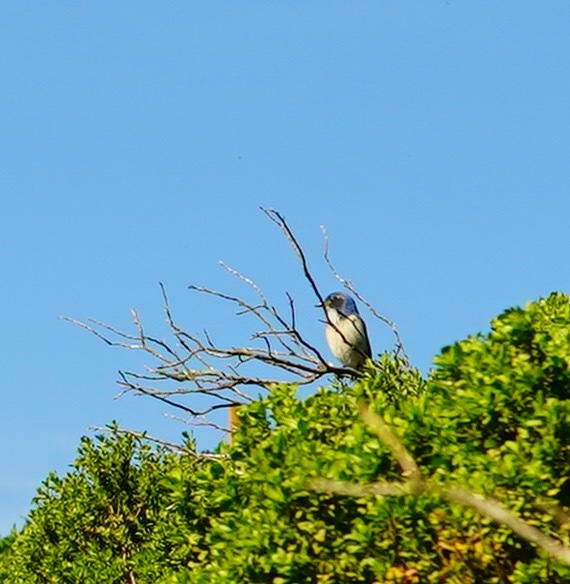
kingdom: Animalia
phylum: Chordata
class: Aves
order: Passeriformes
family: Corvidae
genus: Aphelocoma
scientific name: Aphelocoma californica
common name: California scrub-jay
